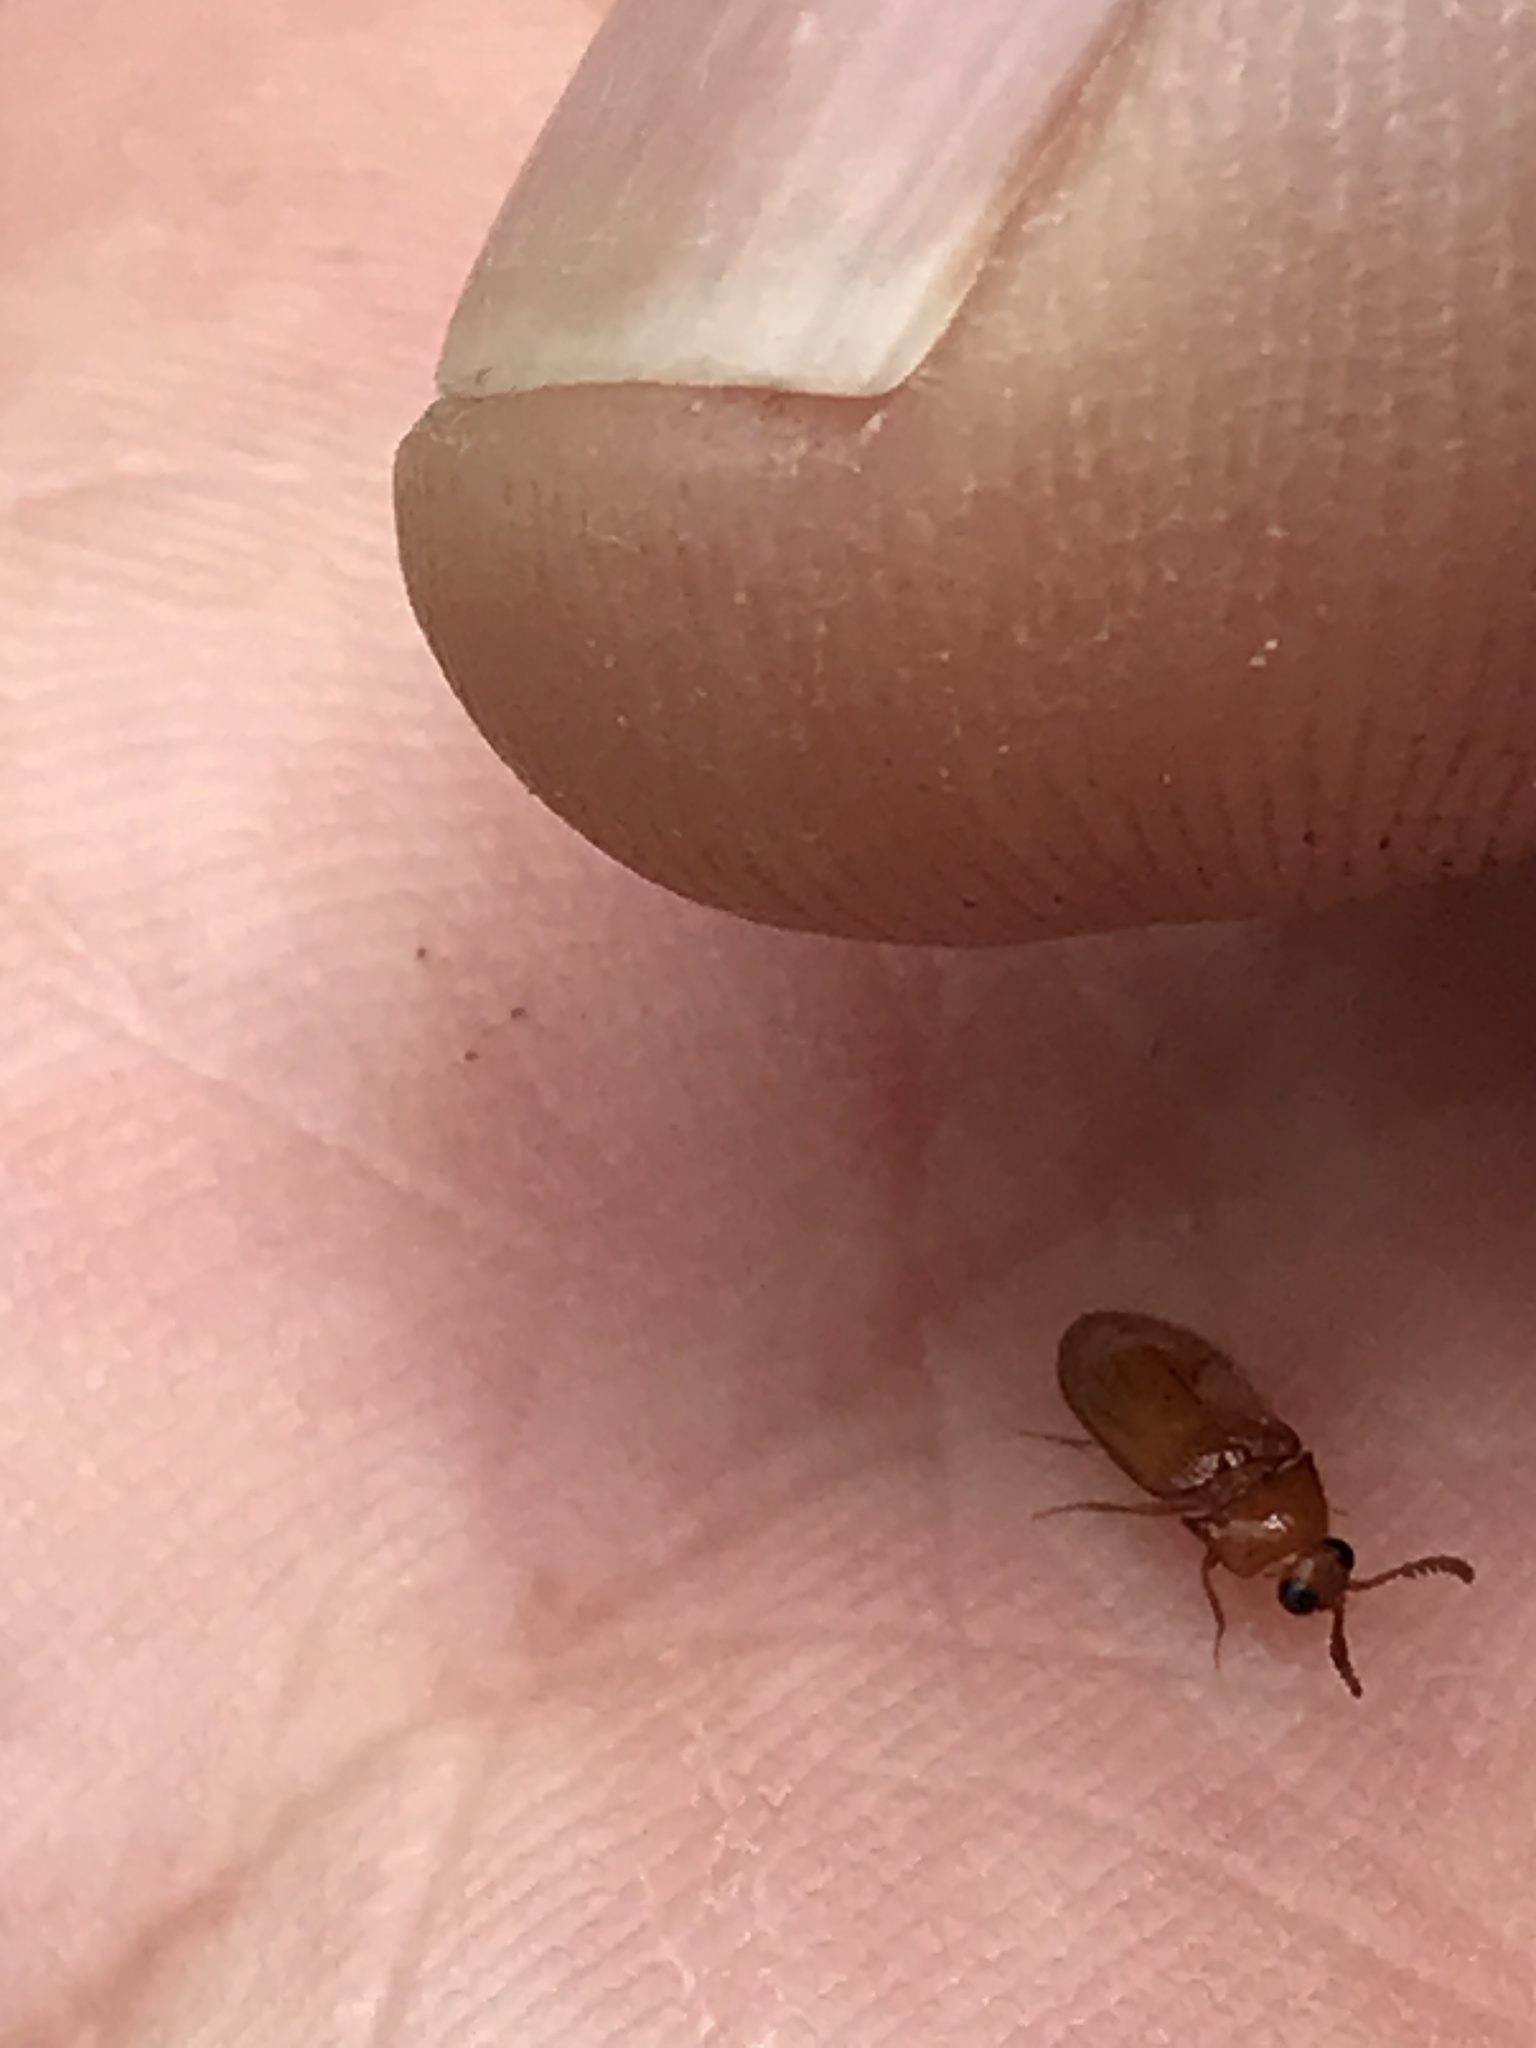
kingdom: Animalia
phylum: Arthropoda
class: Insecta
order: Coleoptera
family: Brachypsectridae
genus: Brachypsectra
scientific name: Brachypsectra fulva
